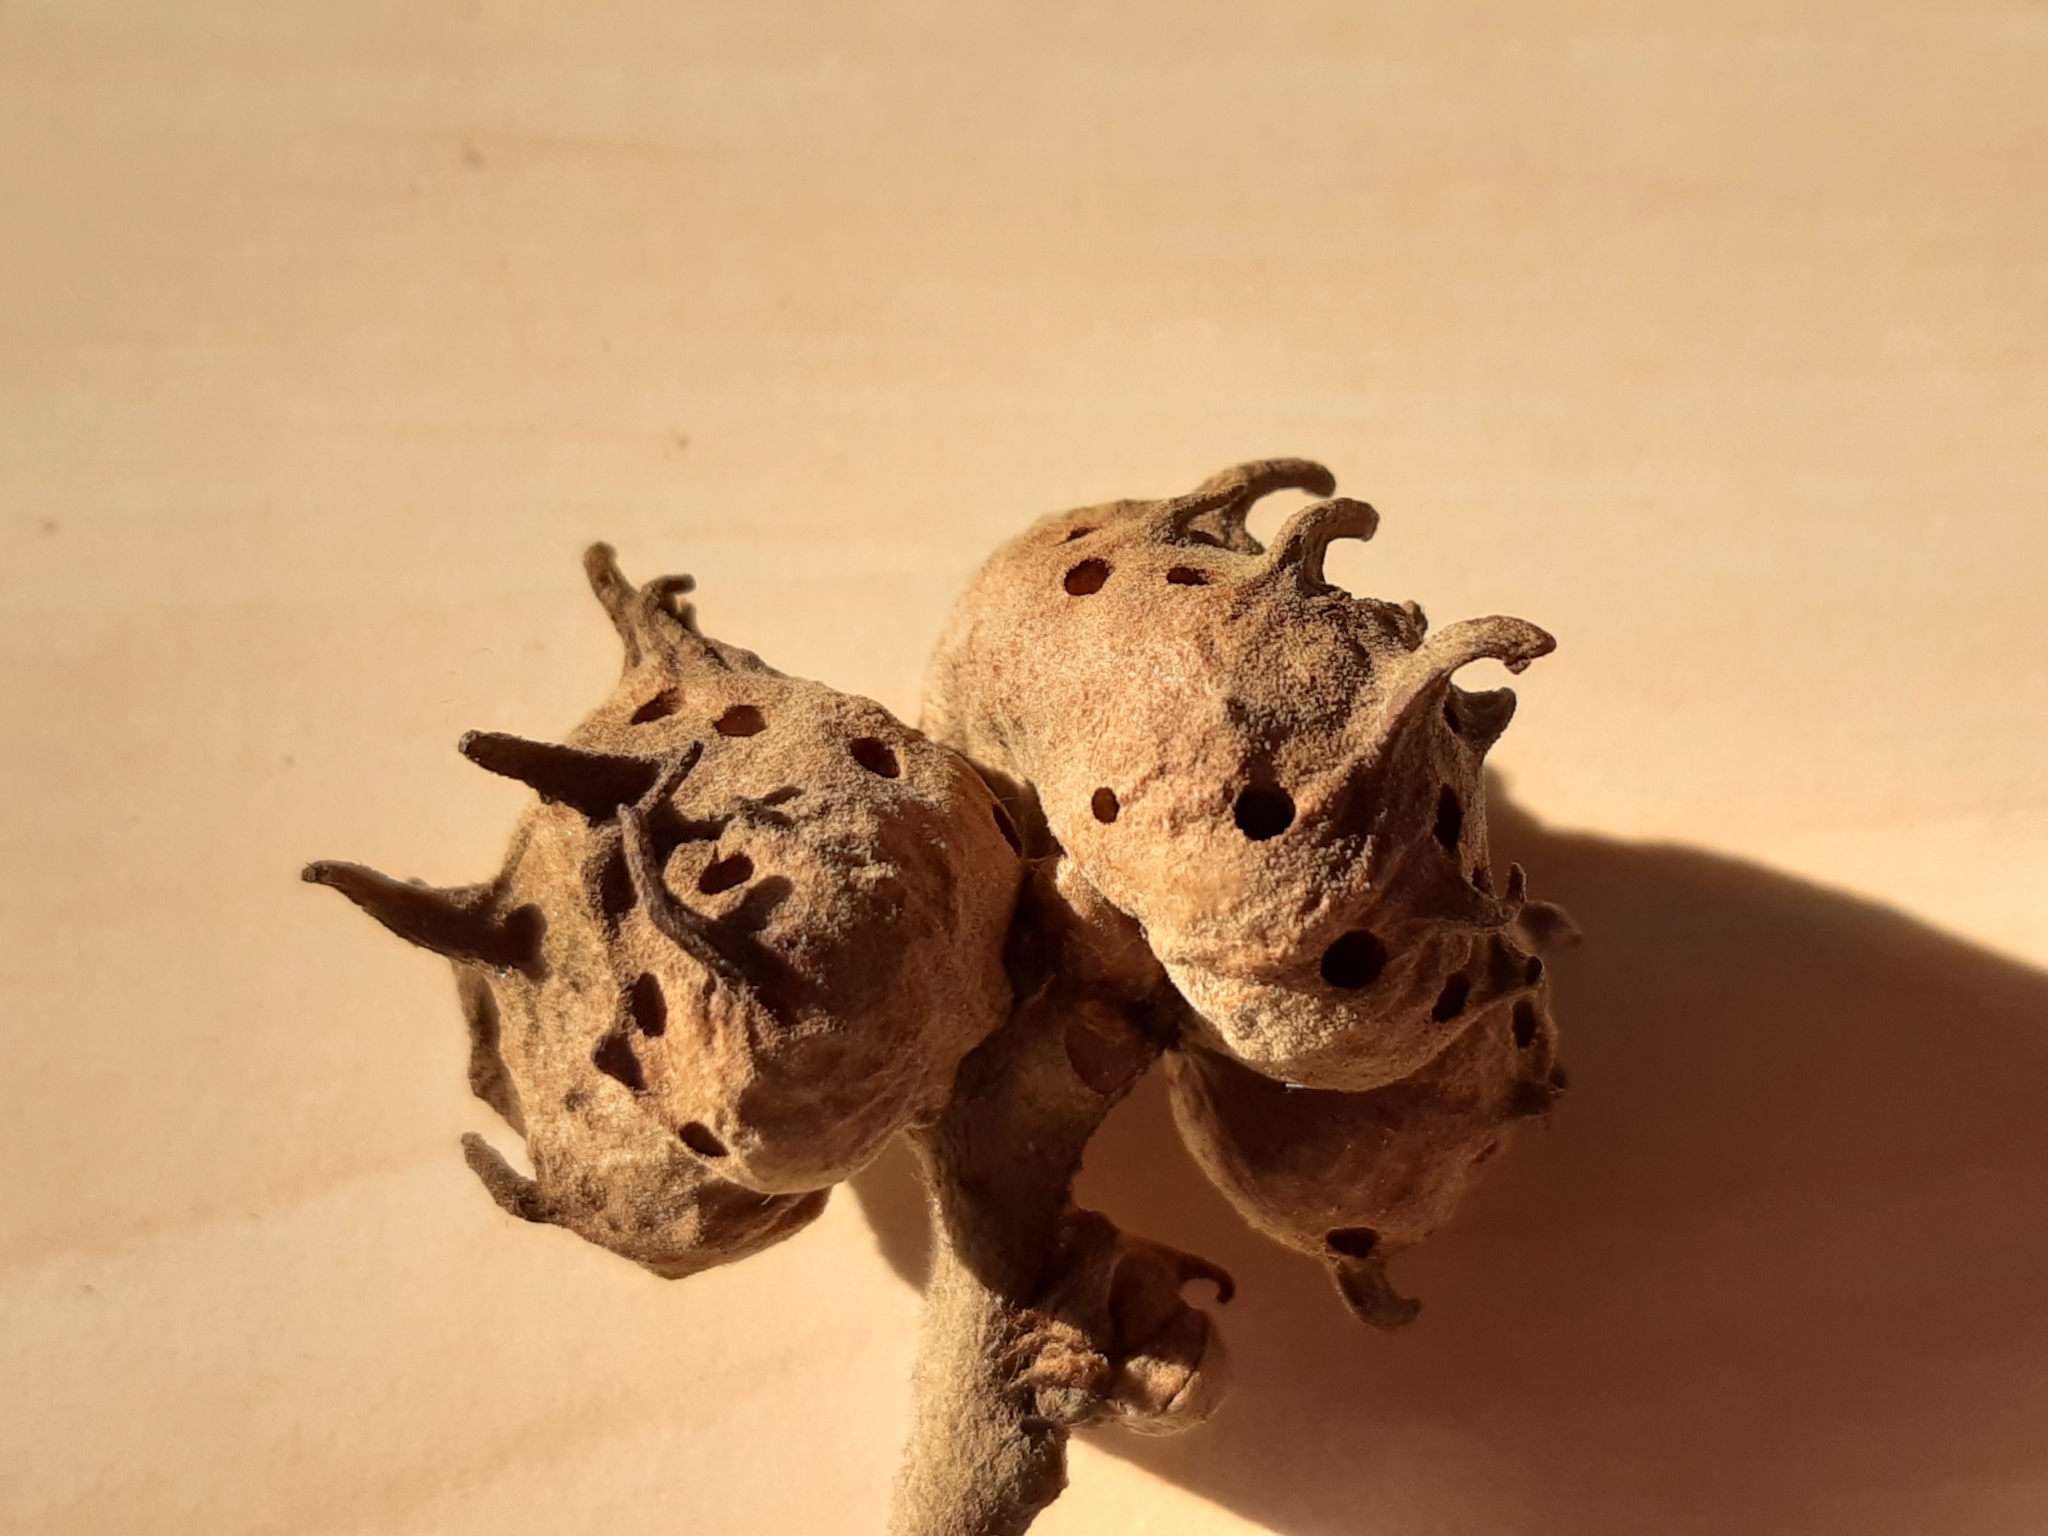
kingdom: Animalia
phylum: Arthropoda
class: Insecta
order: Hymenoptera
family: Cynipidae
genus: Andricus
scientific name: Andricus coriarius
